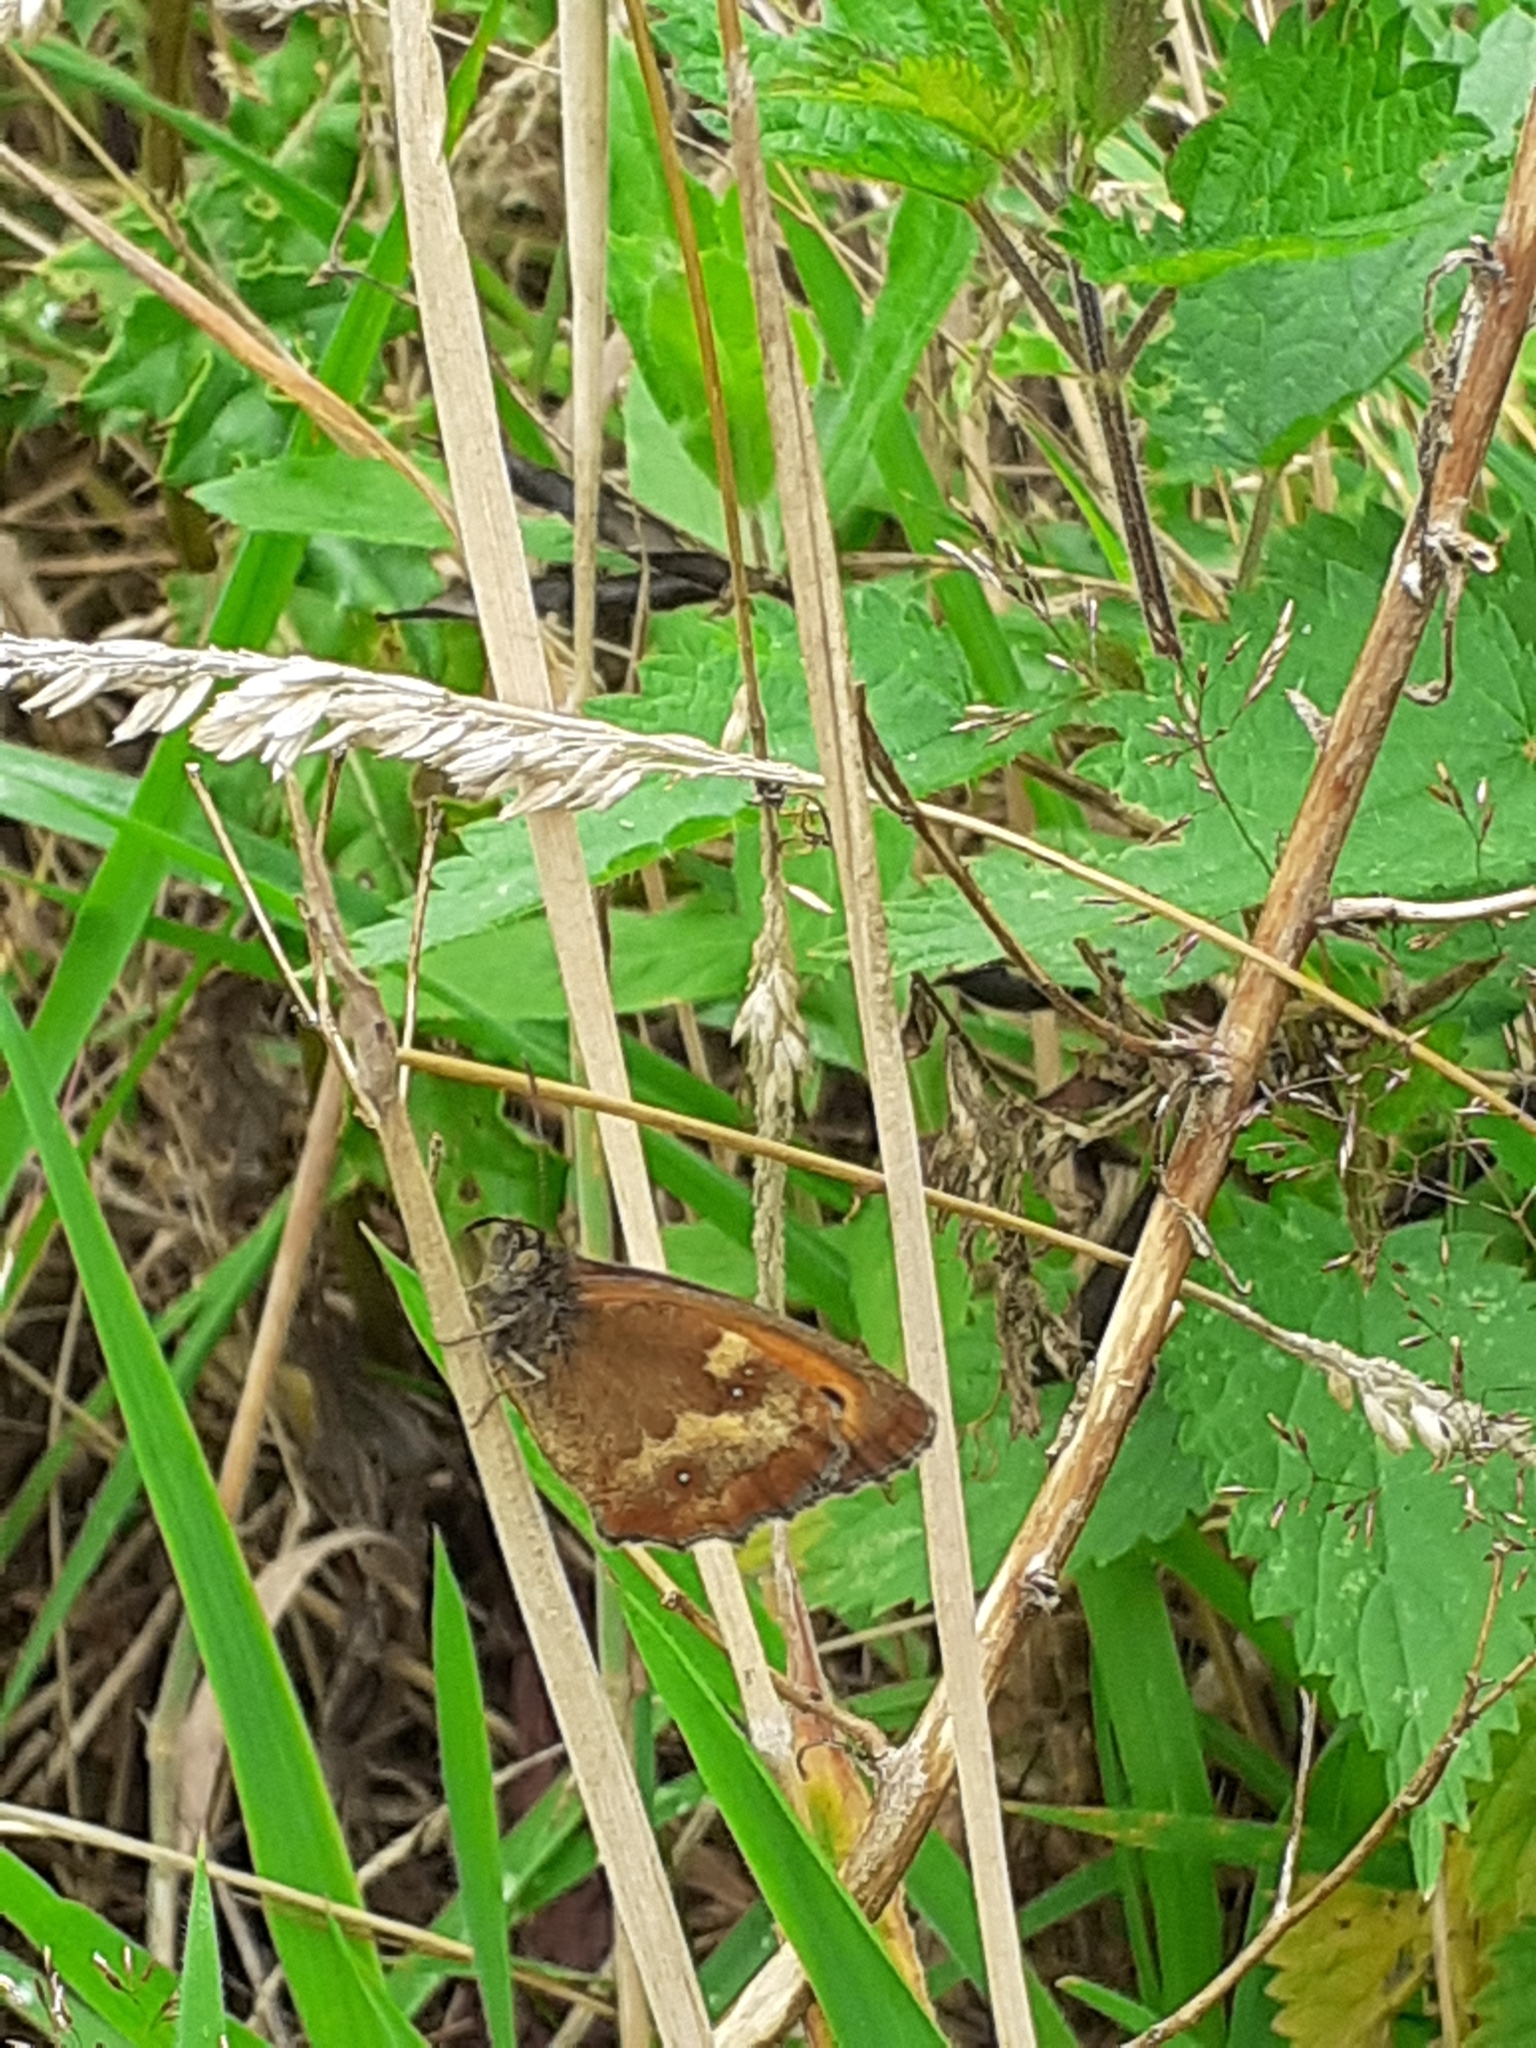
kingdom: Animalia
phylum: Arthropoda
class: Insecta
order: Lepidoptera
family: Nymphalidae
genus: Pyronia
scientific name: Pyronia tithonus
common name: Gatekeeper
